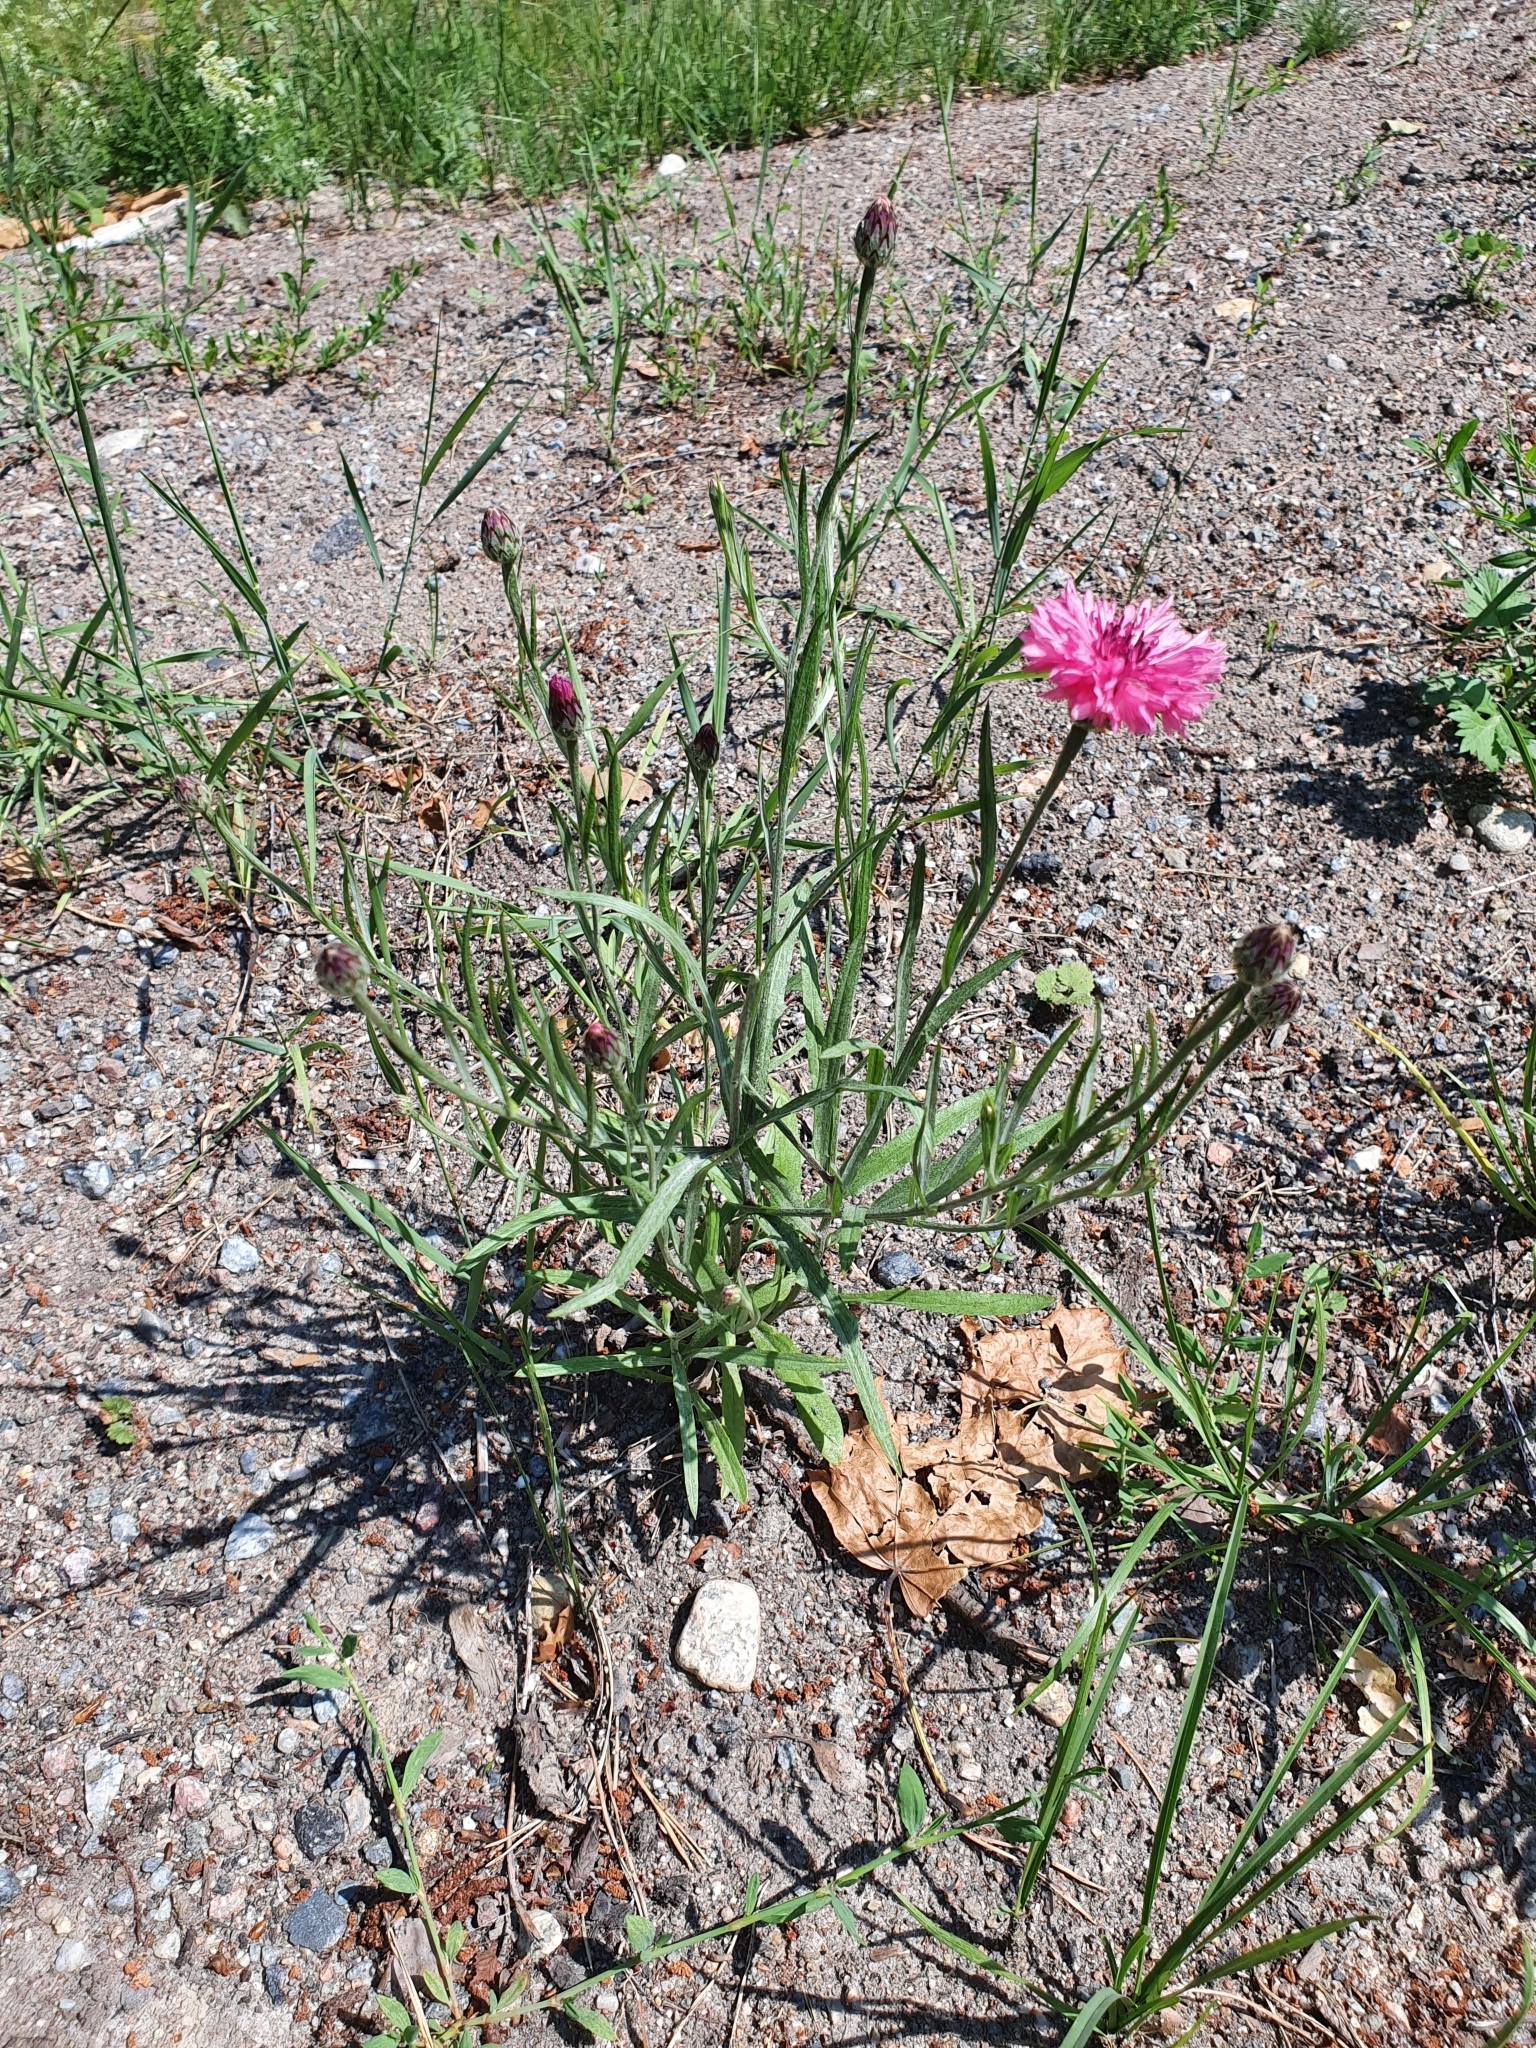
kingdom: Plantae
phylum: Tracheophyta
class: Magnoliopsida
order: Asterales
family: Asteraceae
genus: Centaurea
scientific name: Centaurea cyanus
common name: Cornflower
